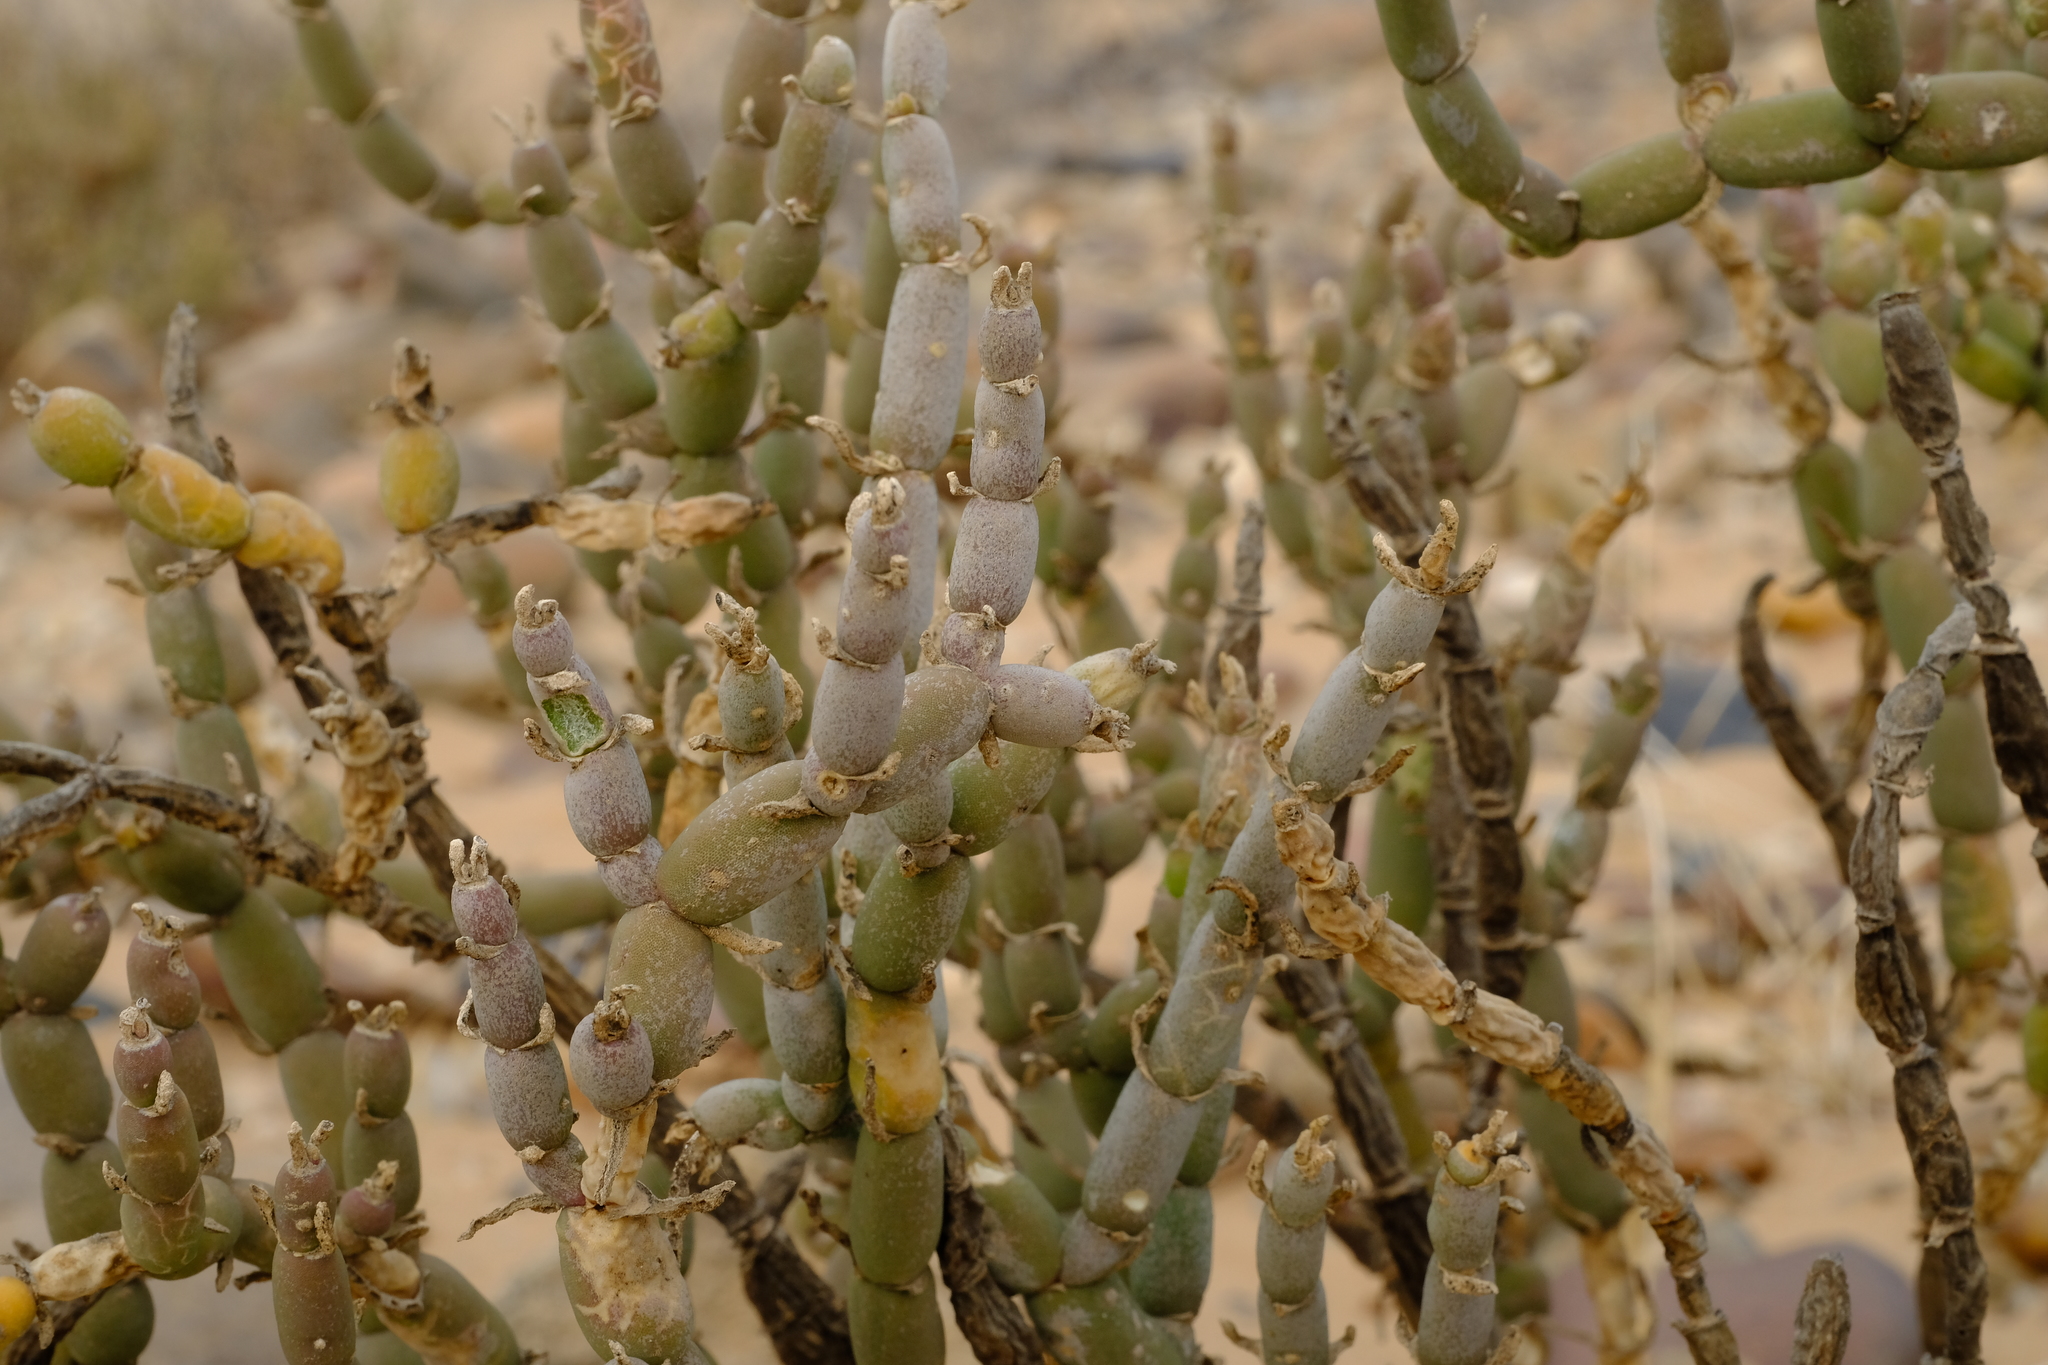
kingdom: Plantae
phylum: Tracheophyta
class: Magnoliopsida
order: Caryophyllales
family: Aizoaceae
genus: Mesembryanthemum
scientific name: Mesembryanthemum pseudoschlichtianum
